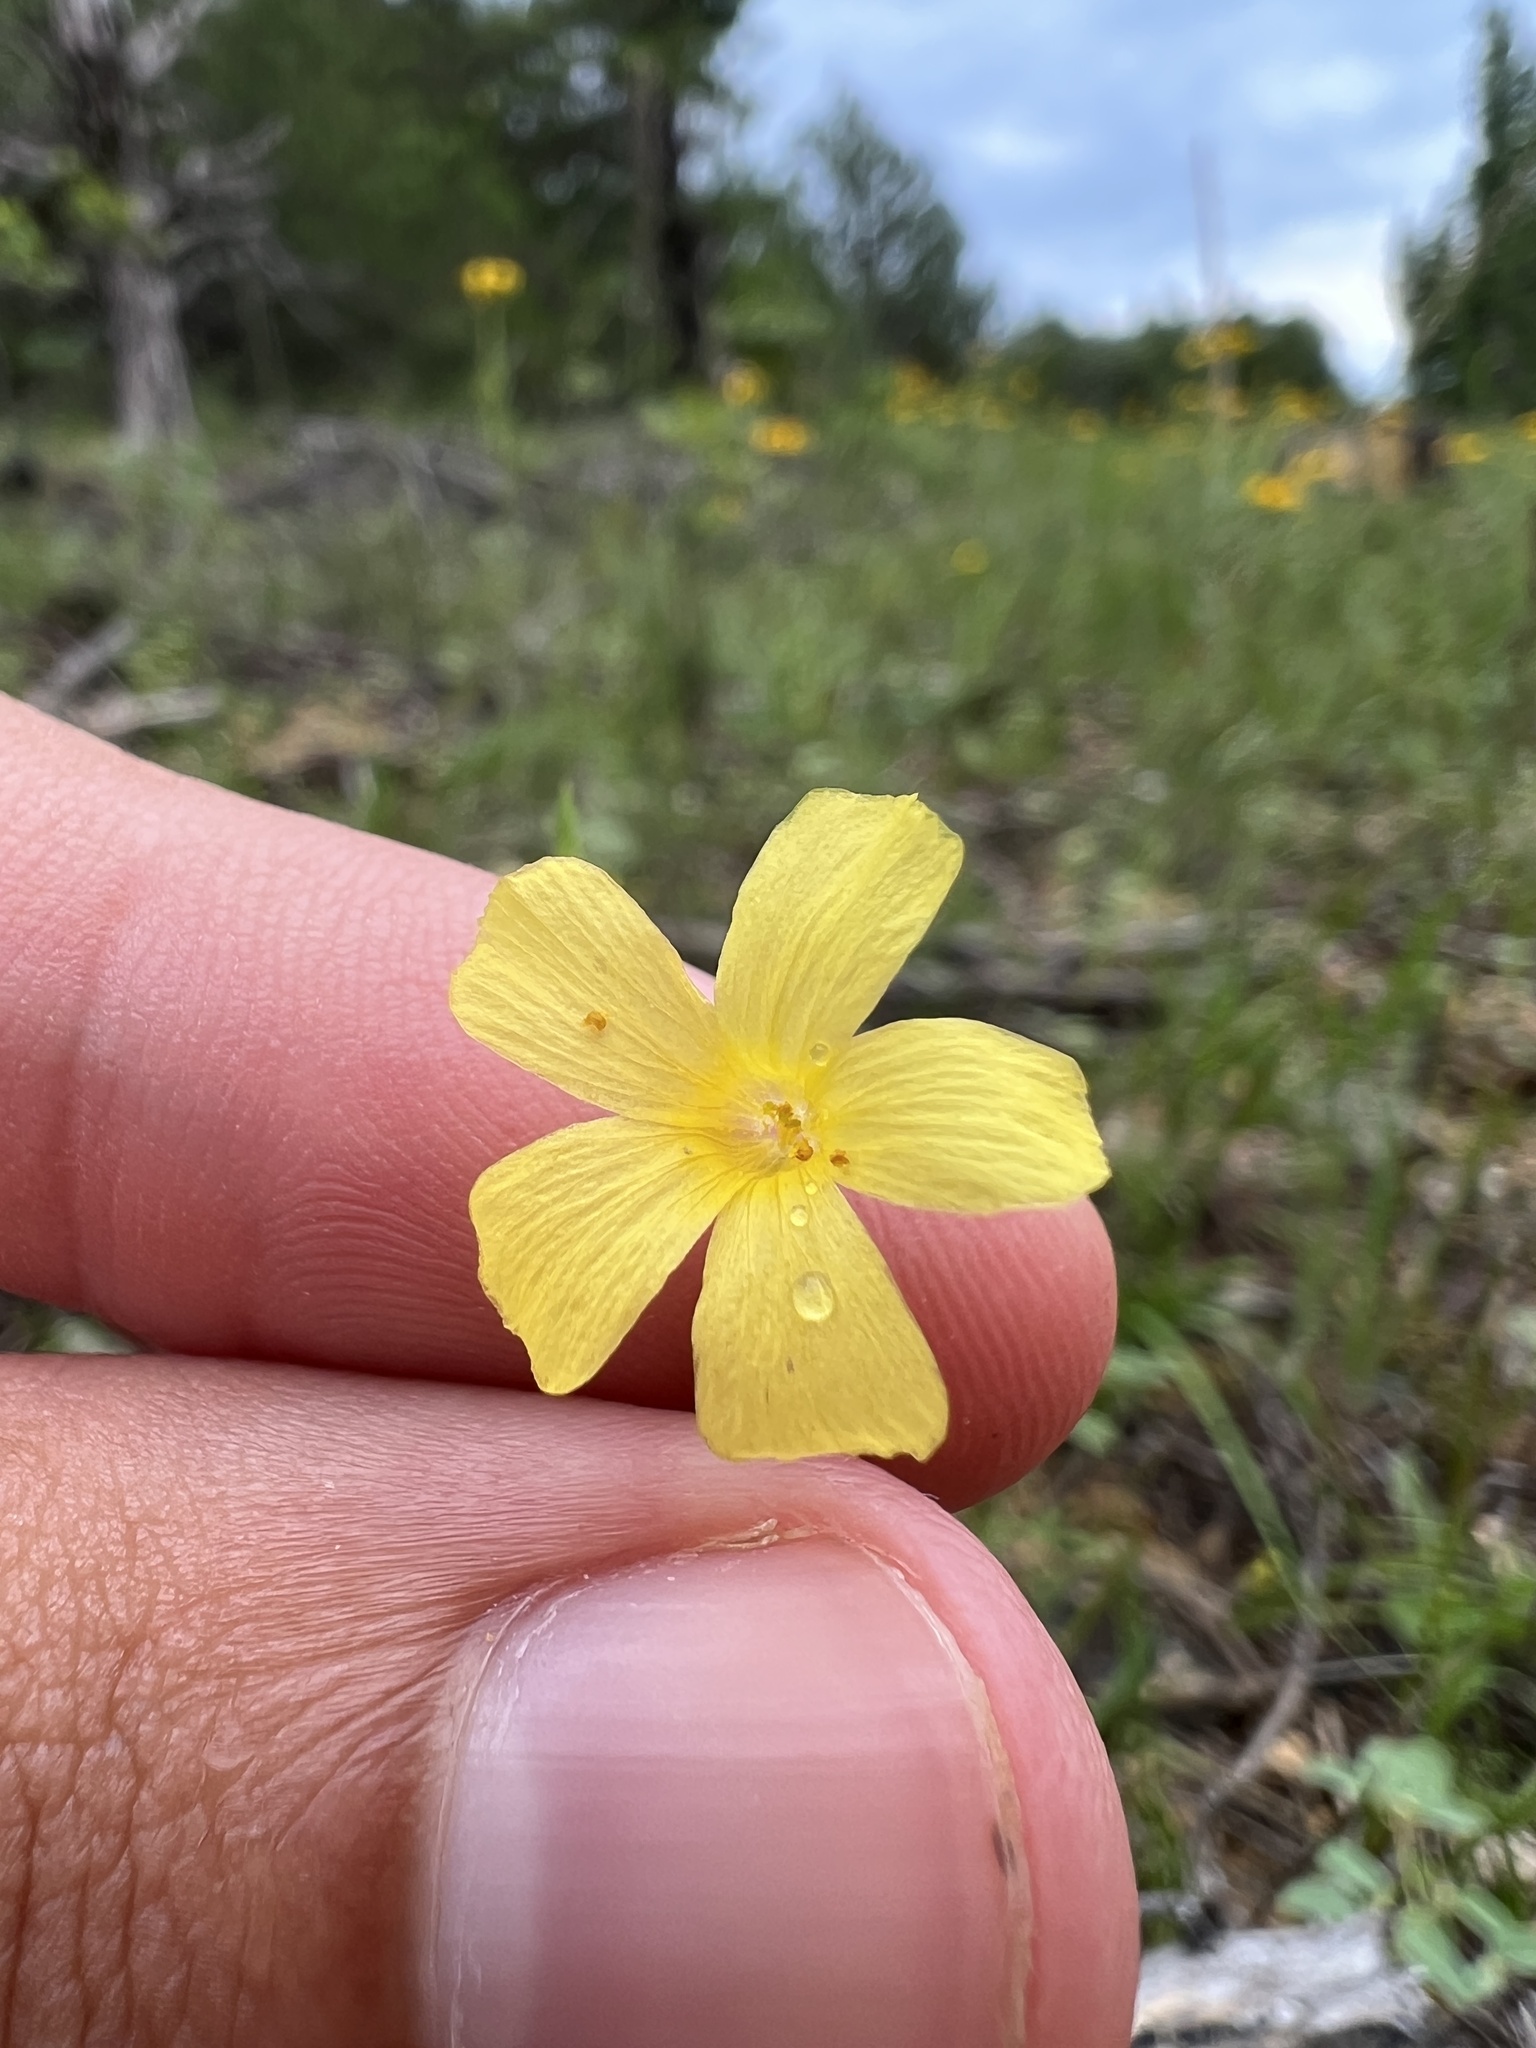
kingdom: Plantae
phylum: Tracheophyta
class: Magnoliopsida
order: Malpighiales
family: Linaceae
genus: Linum
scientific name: Linum sulcatum
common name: Grooved flax
